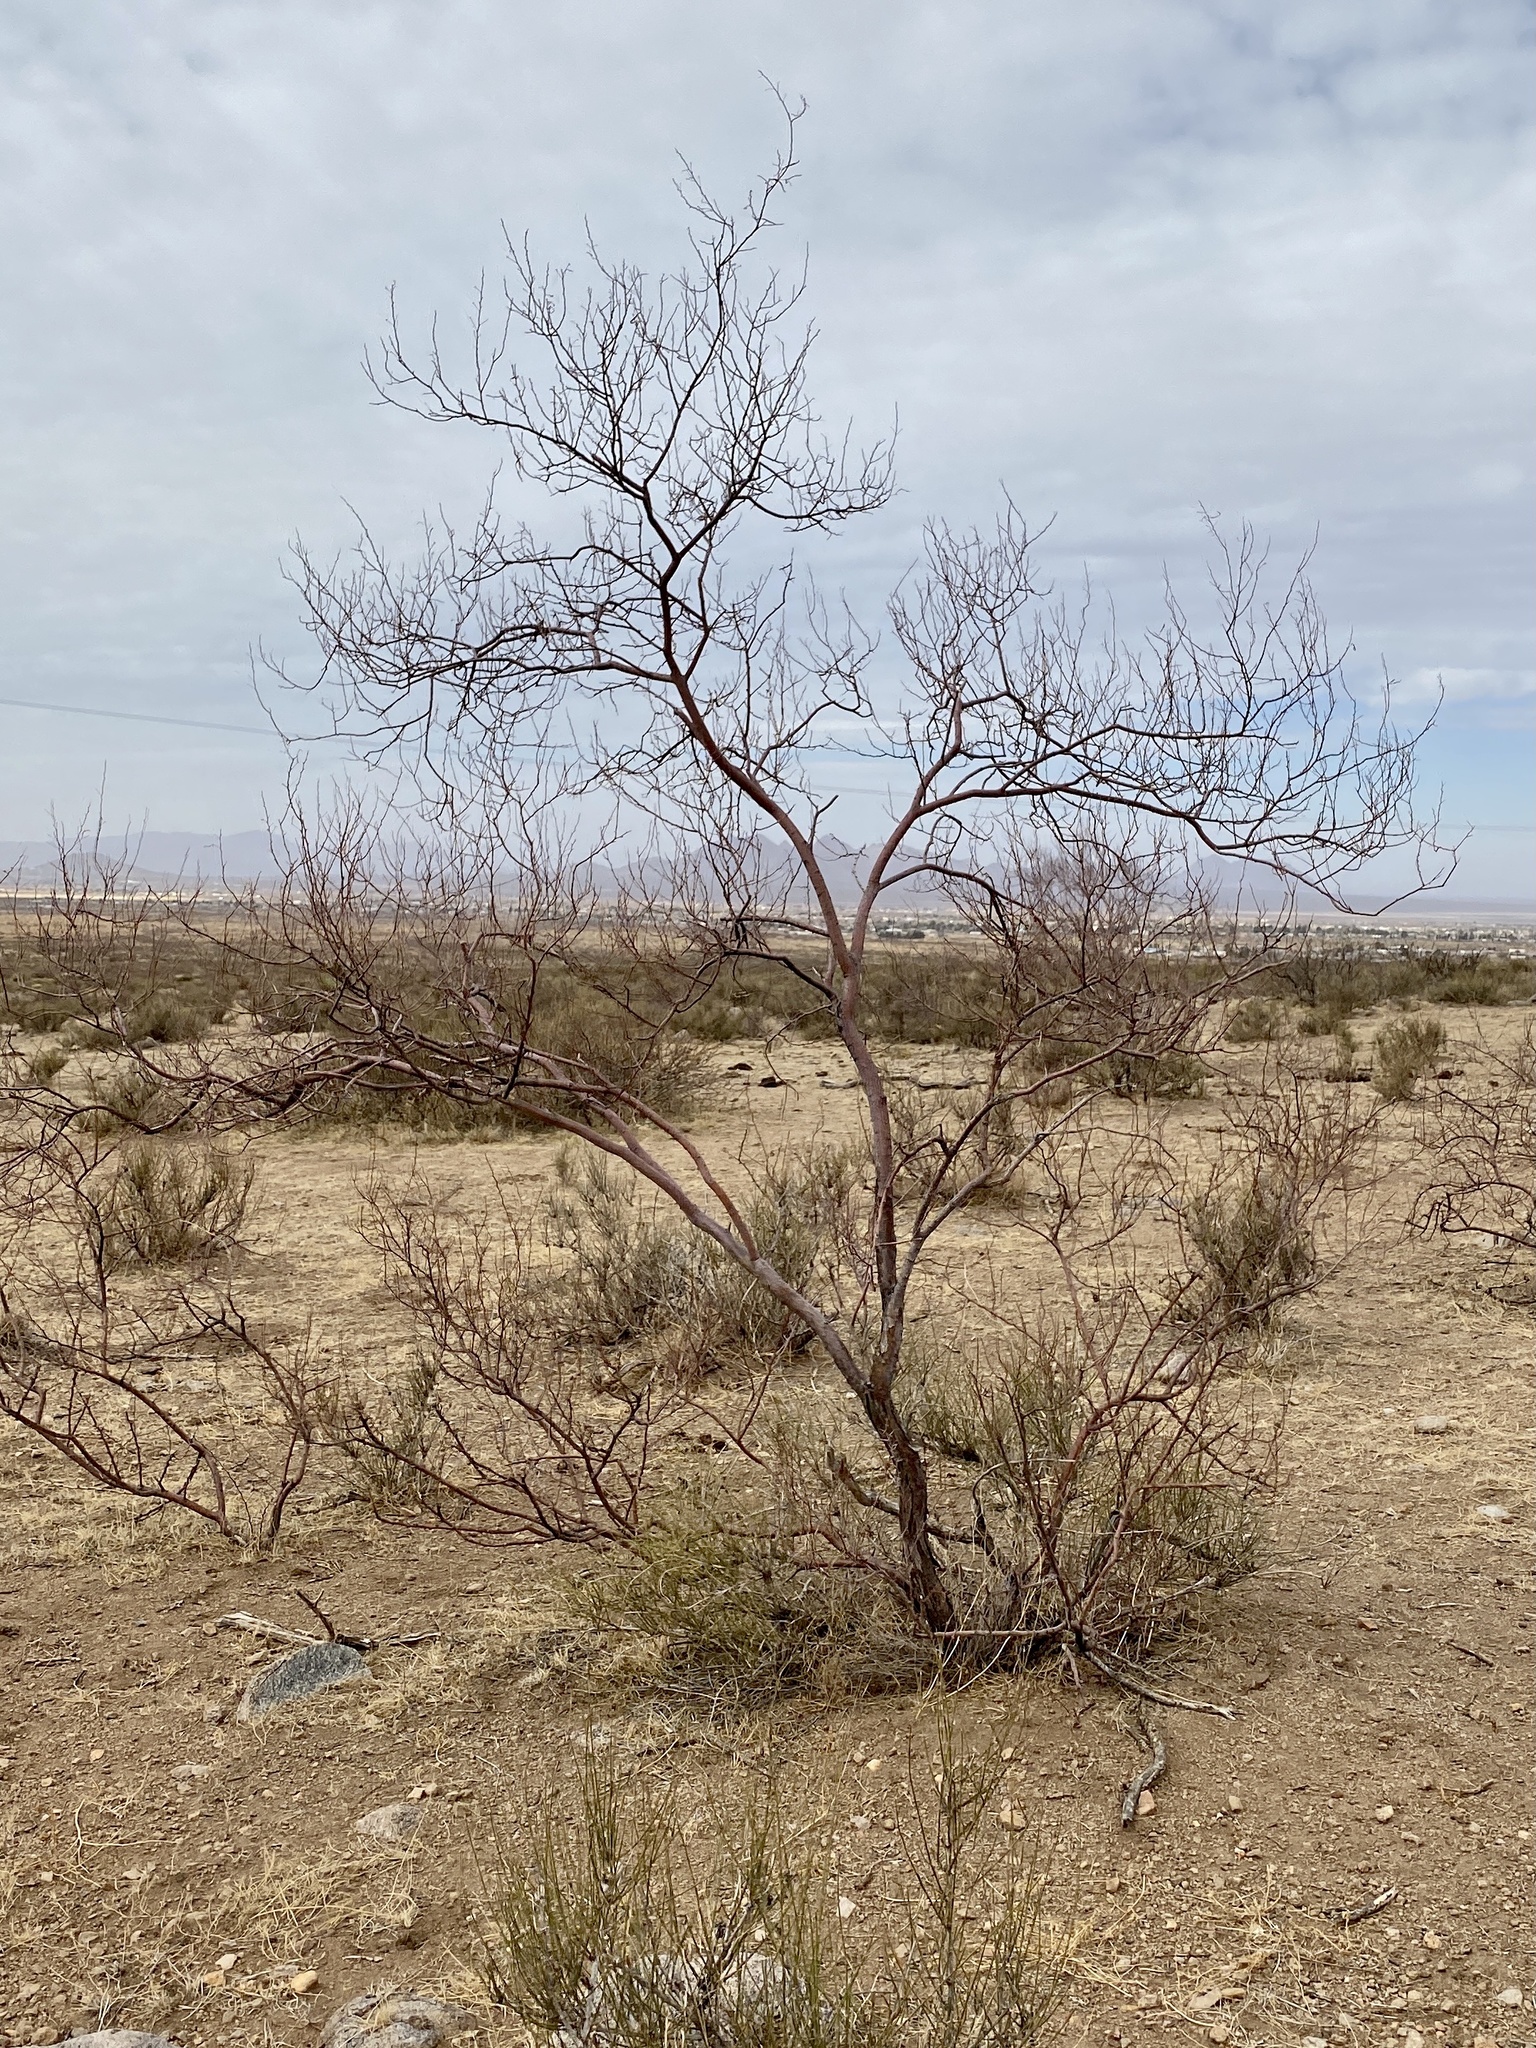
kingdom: Plantae
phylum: Tracheophyta
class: Magnoliopsida
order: Fabales
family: Fabaceae
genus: Vachellia
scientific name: Vachellia constricta
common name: Mescat acacia
